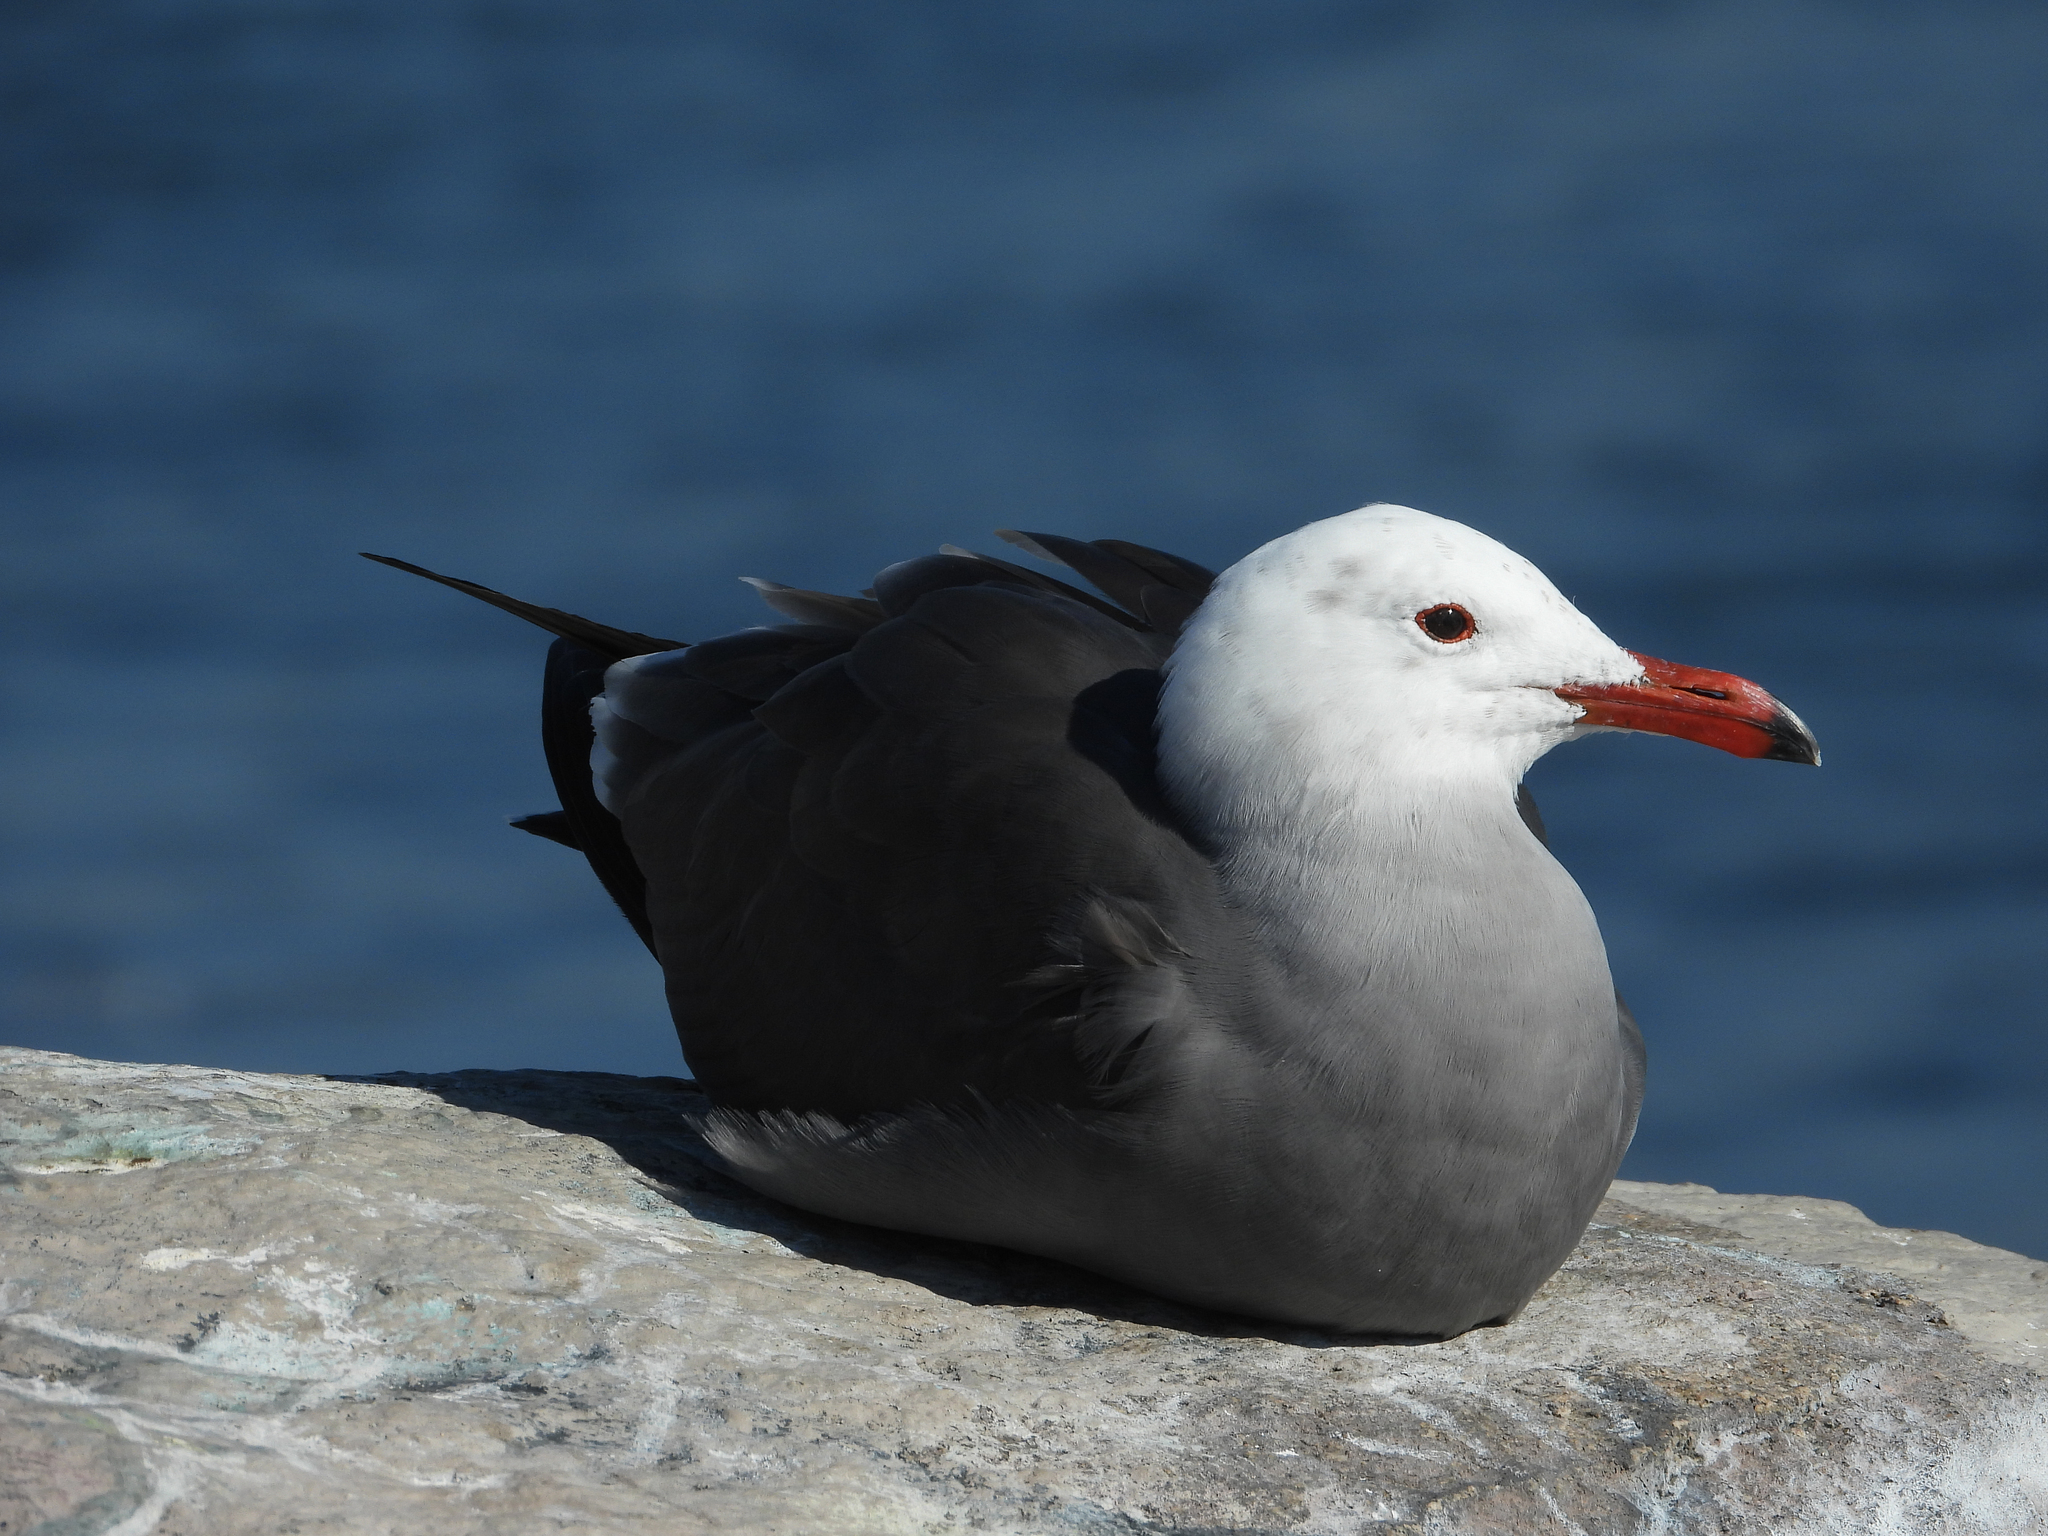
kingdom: Animalia
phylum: Chordata
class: Aves
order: Charadriiformes
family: Laridae
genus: Larus
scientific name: Larus heermanni
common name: Heermann's gull
